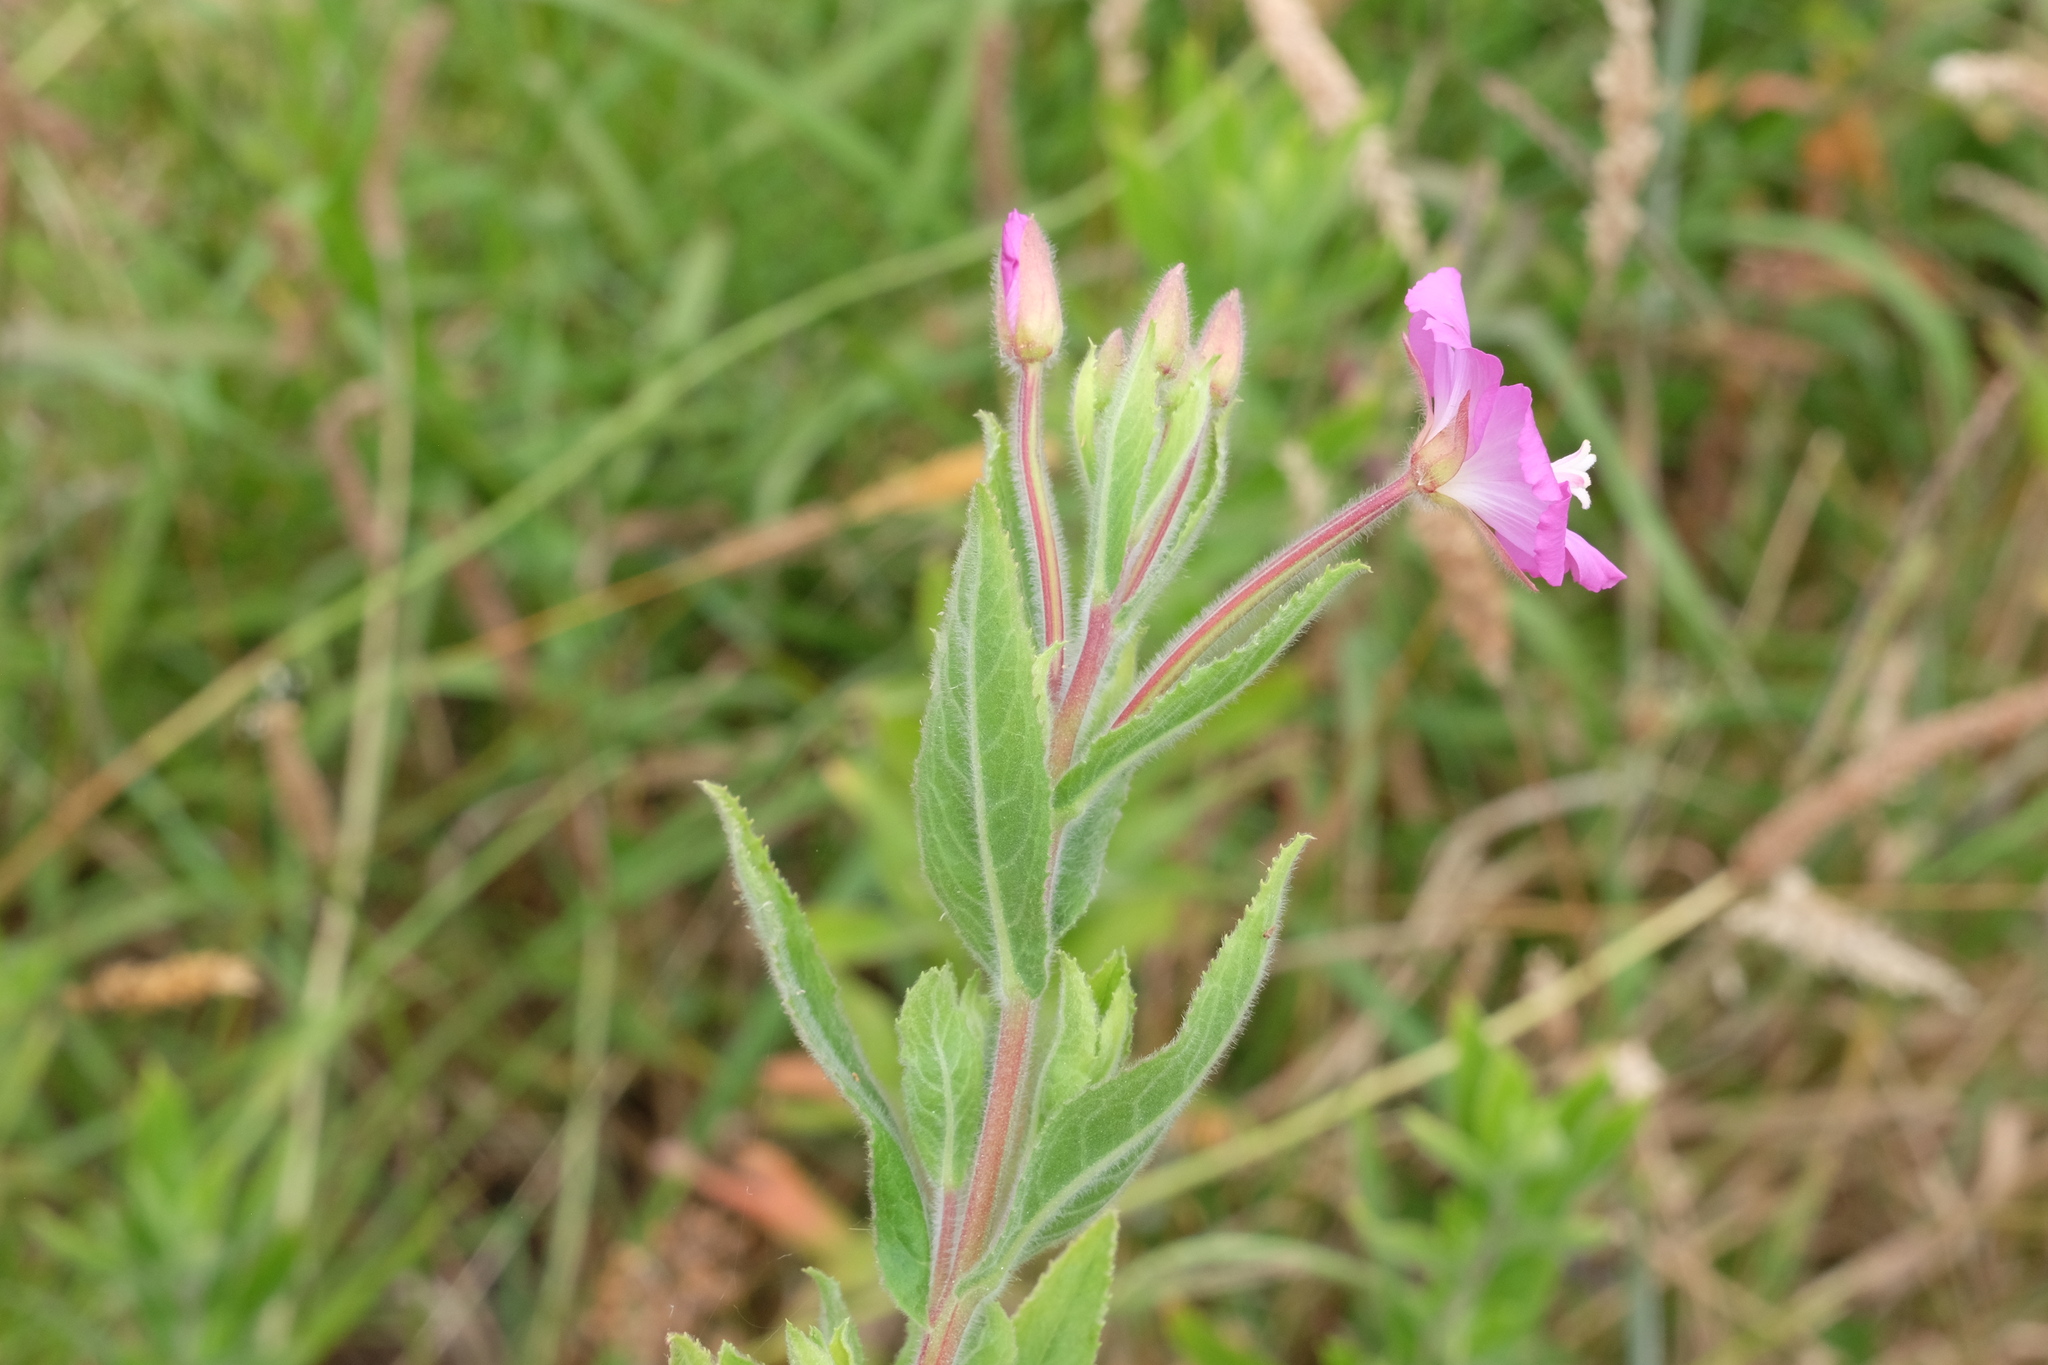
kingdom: Plantae
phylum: Tracheophyta
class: Magnoliopsida
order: Myrtales
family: Onagraceae
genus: Epilobium
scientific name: Epilobium hirsutum
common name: Great willowherb
